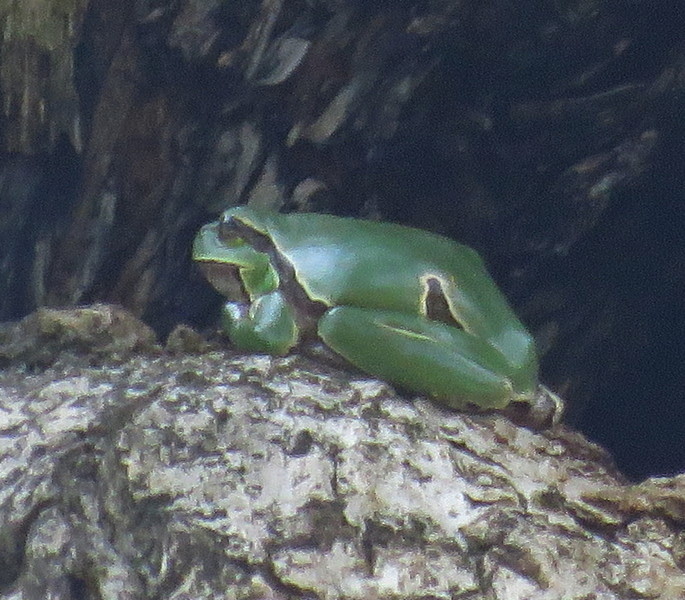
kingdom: Animalia
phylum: Chordata
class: Amphibia
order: Anura
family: Hylidae
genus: Hyla
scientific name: Hyla orientalis
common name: Caucasian treefrog
